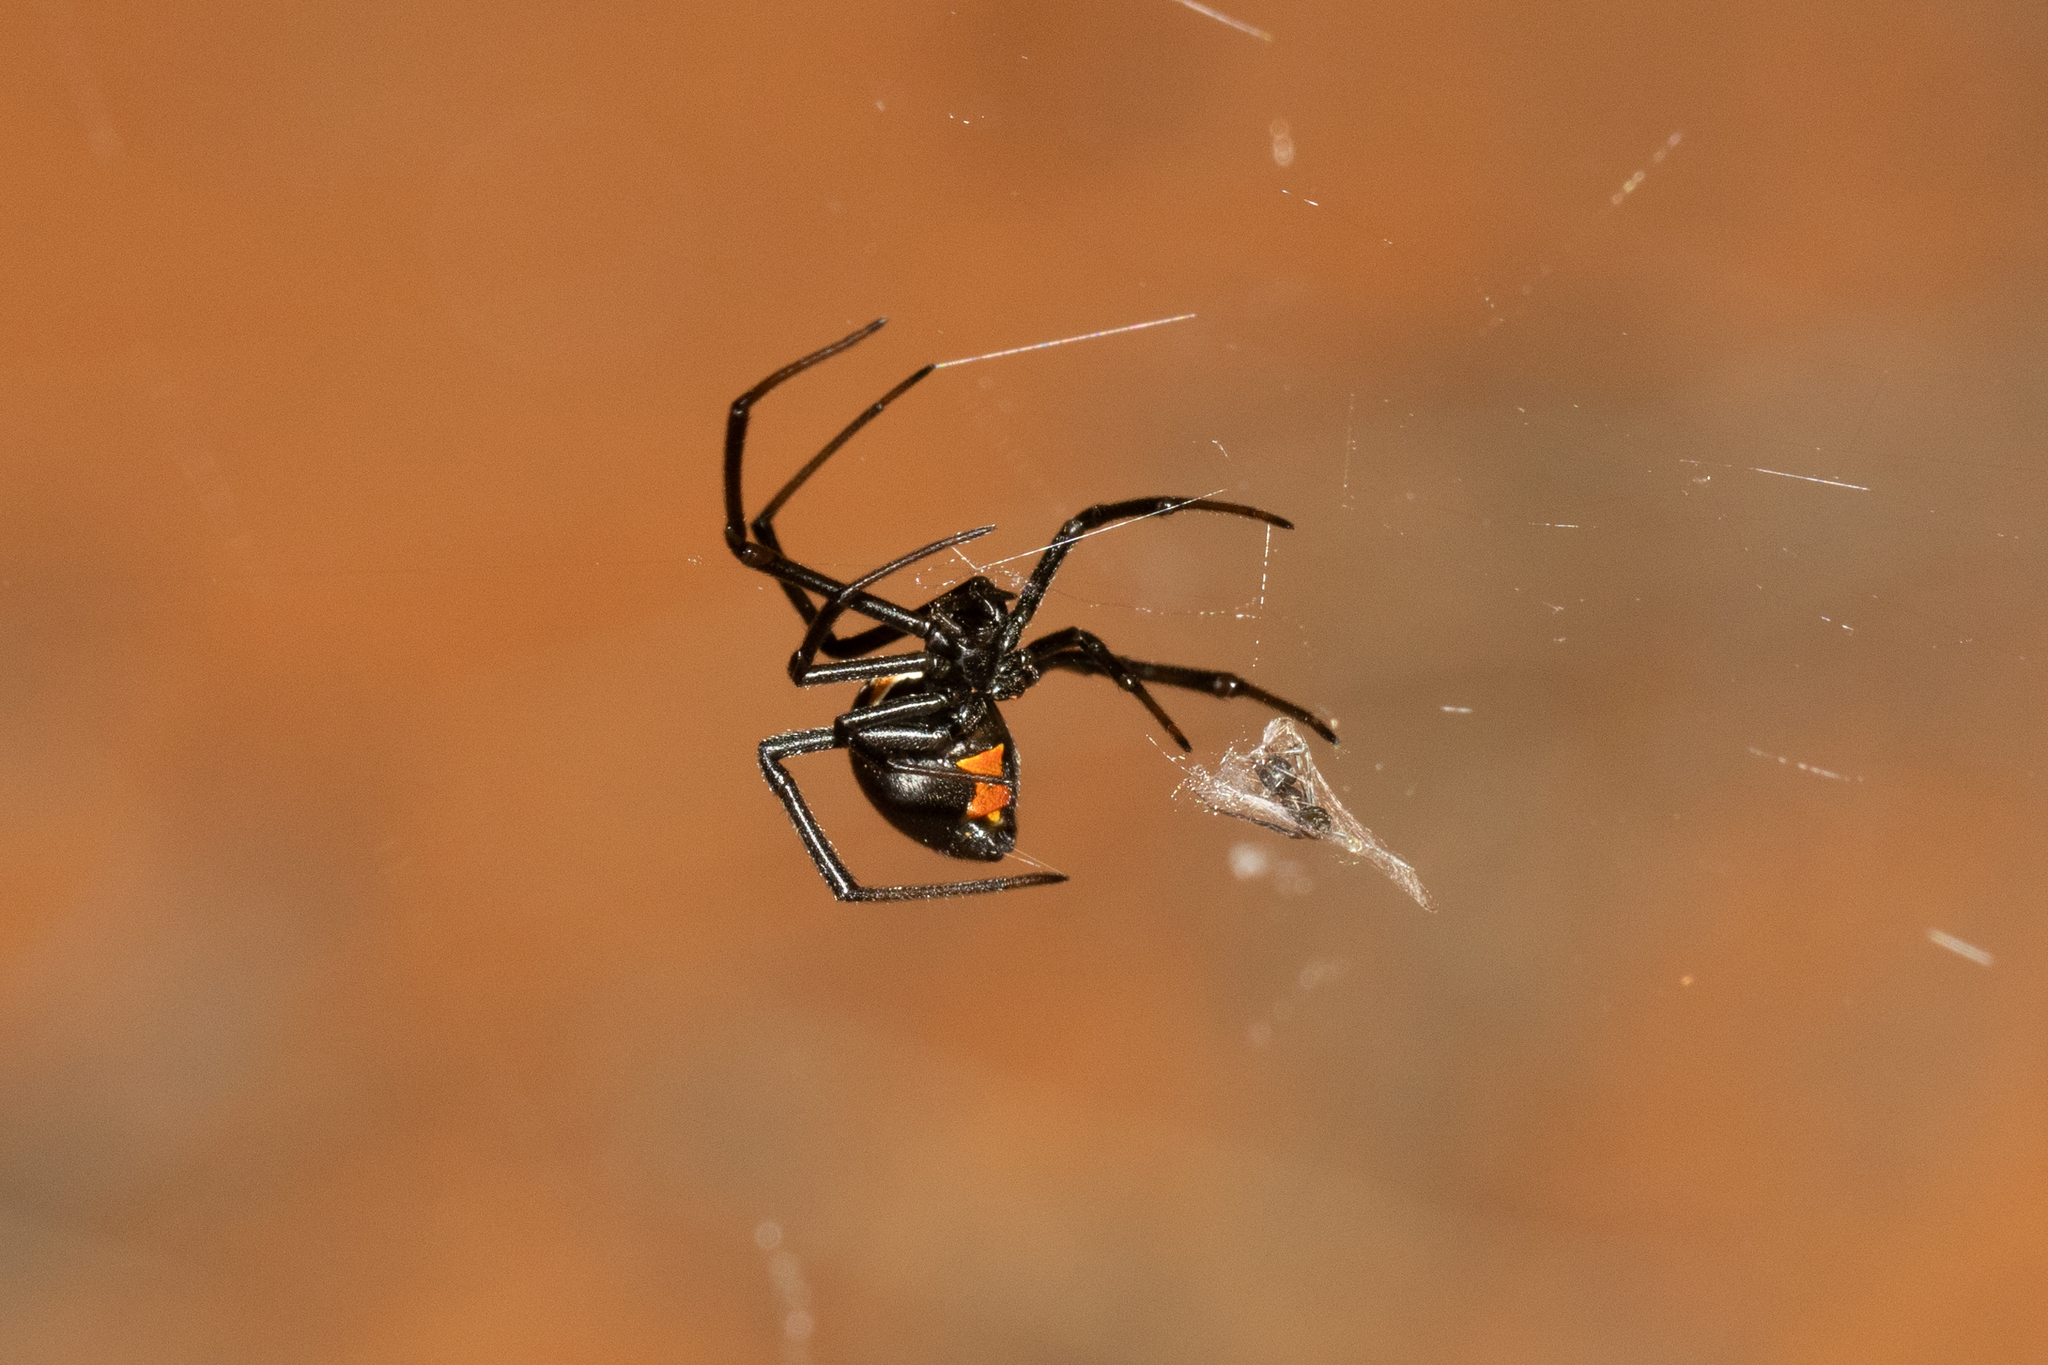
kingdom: Animalia
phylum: Arthropoda
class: Arachnida
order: Araneae
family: Theridiidae
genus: Latrodectus
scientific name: Latrodectus hasselti
